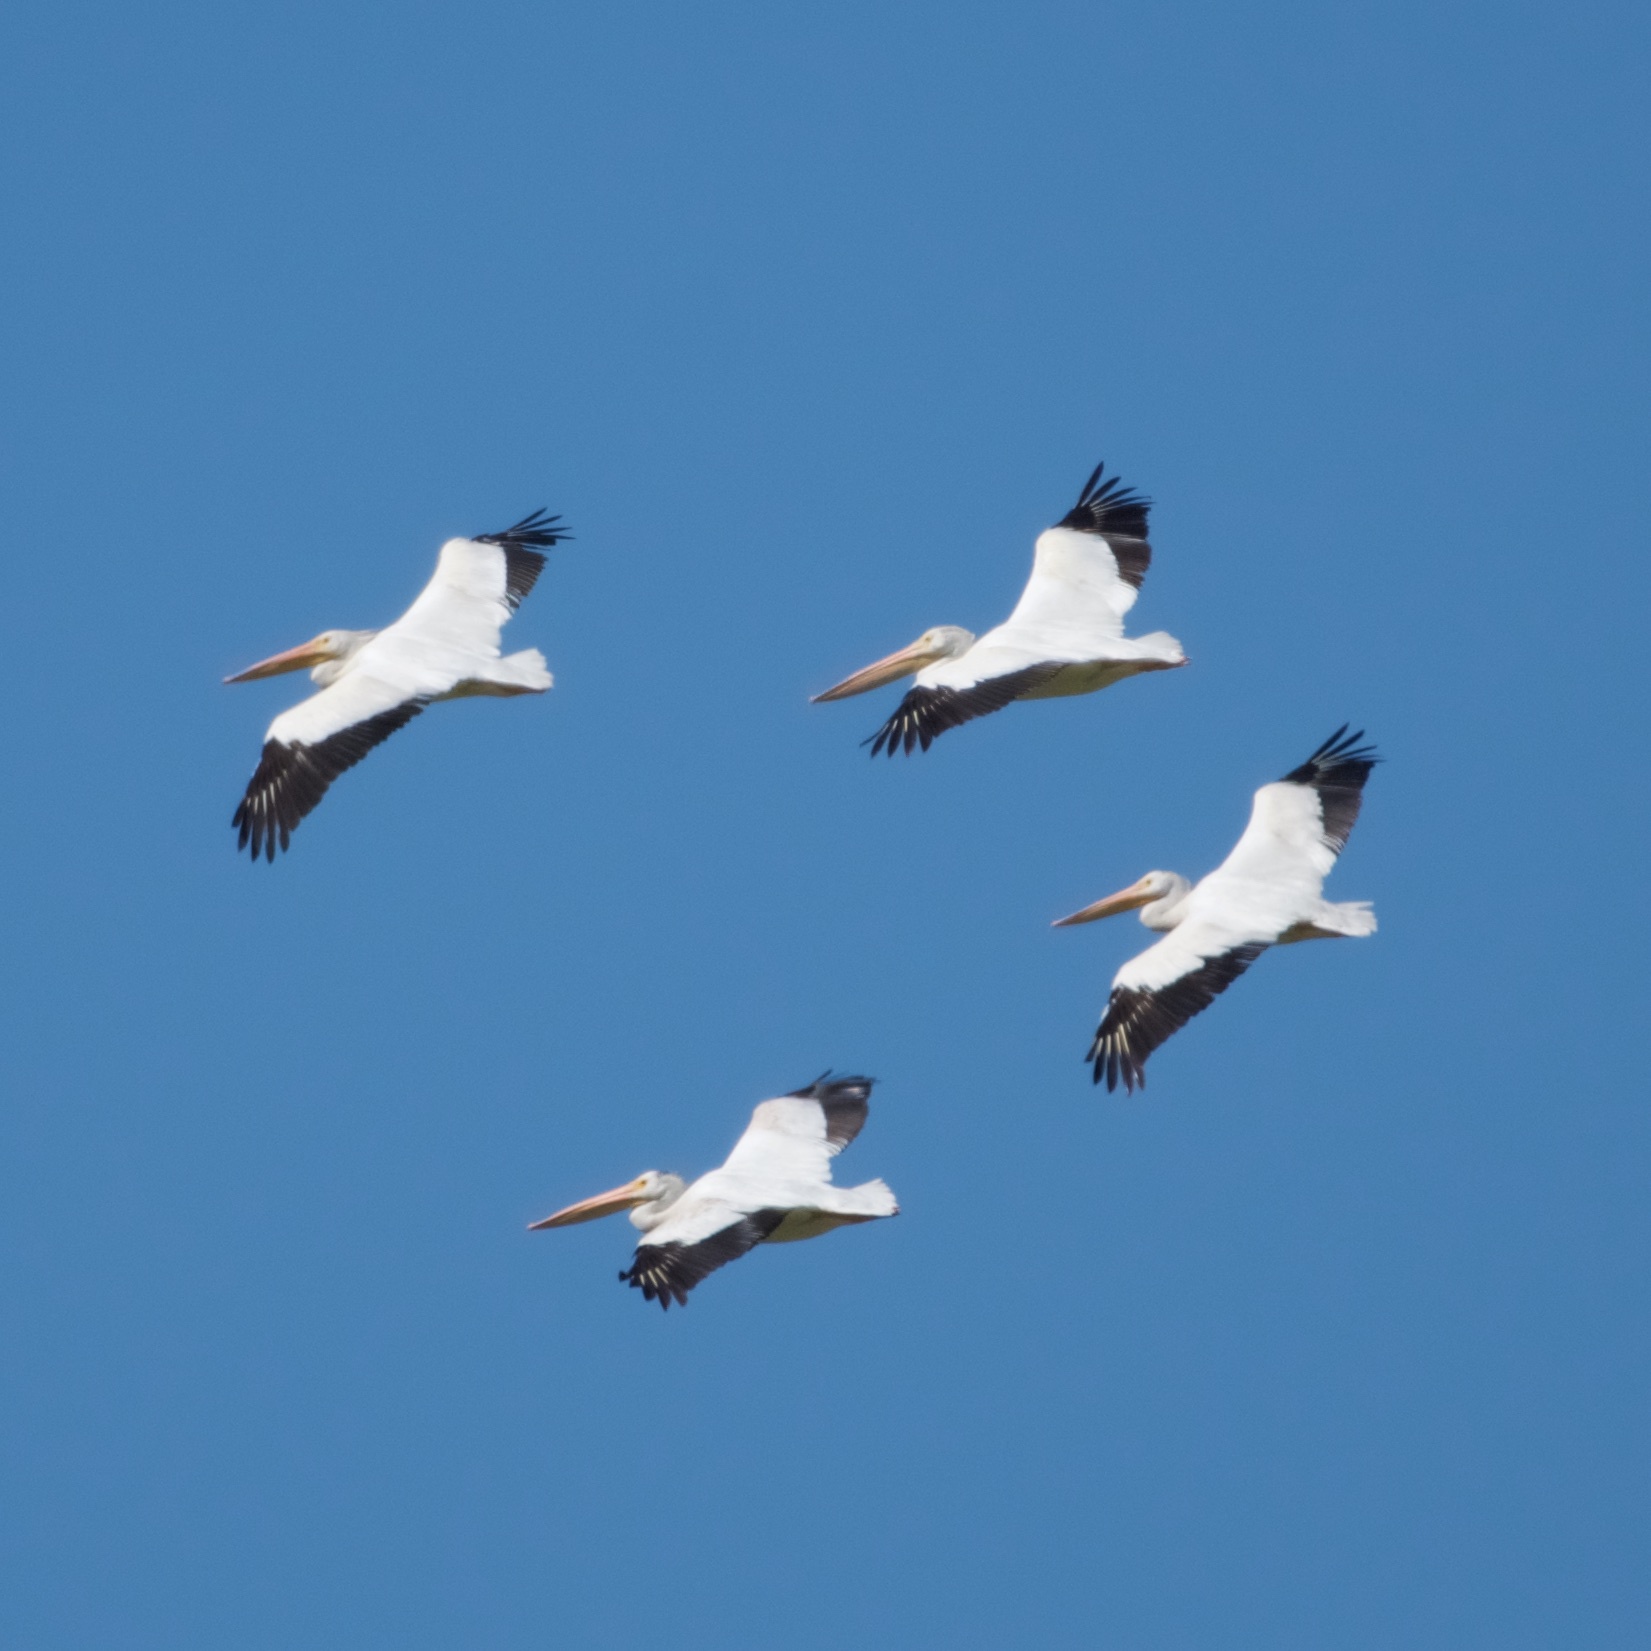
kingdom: Animalia
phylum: Chordata
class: Aves
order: Pelecaniformes
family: Pelecanidae
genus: Pelecanus
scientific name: Pelecanus erythrorhynchos
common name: American white pelican
